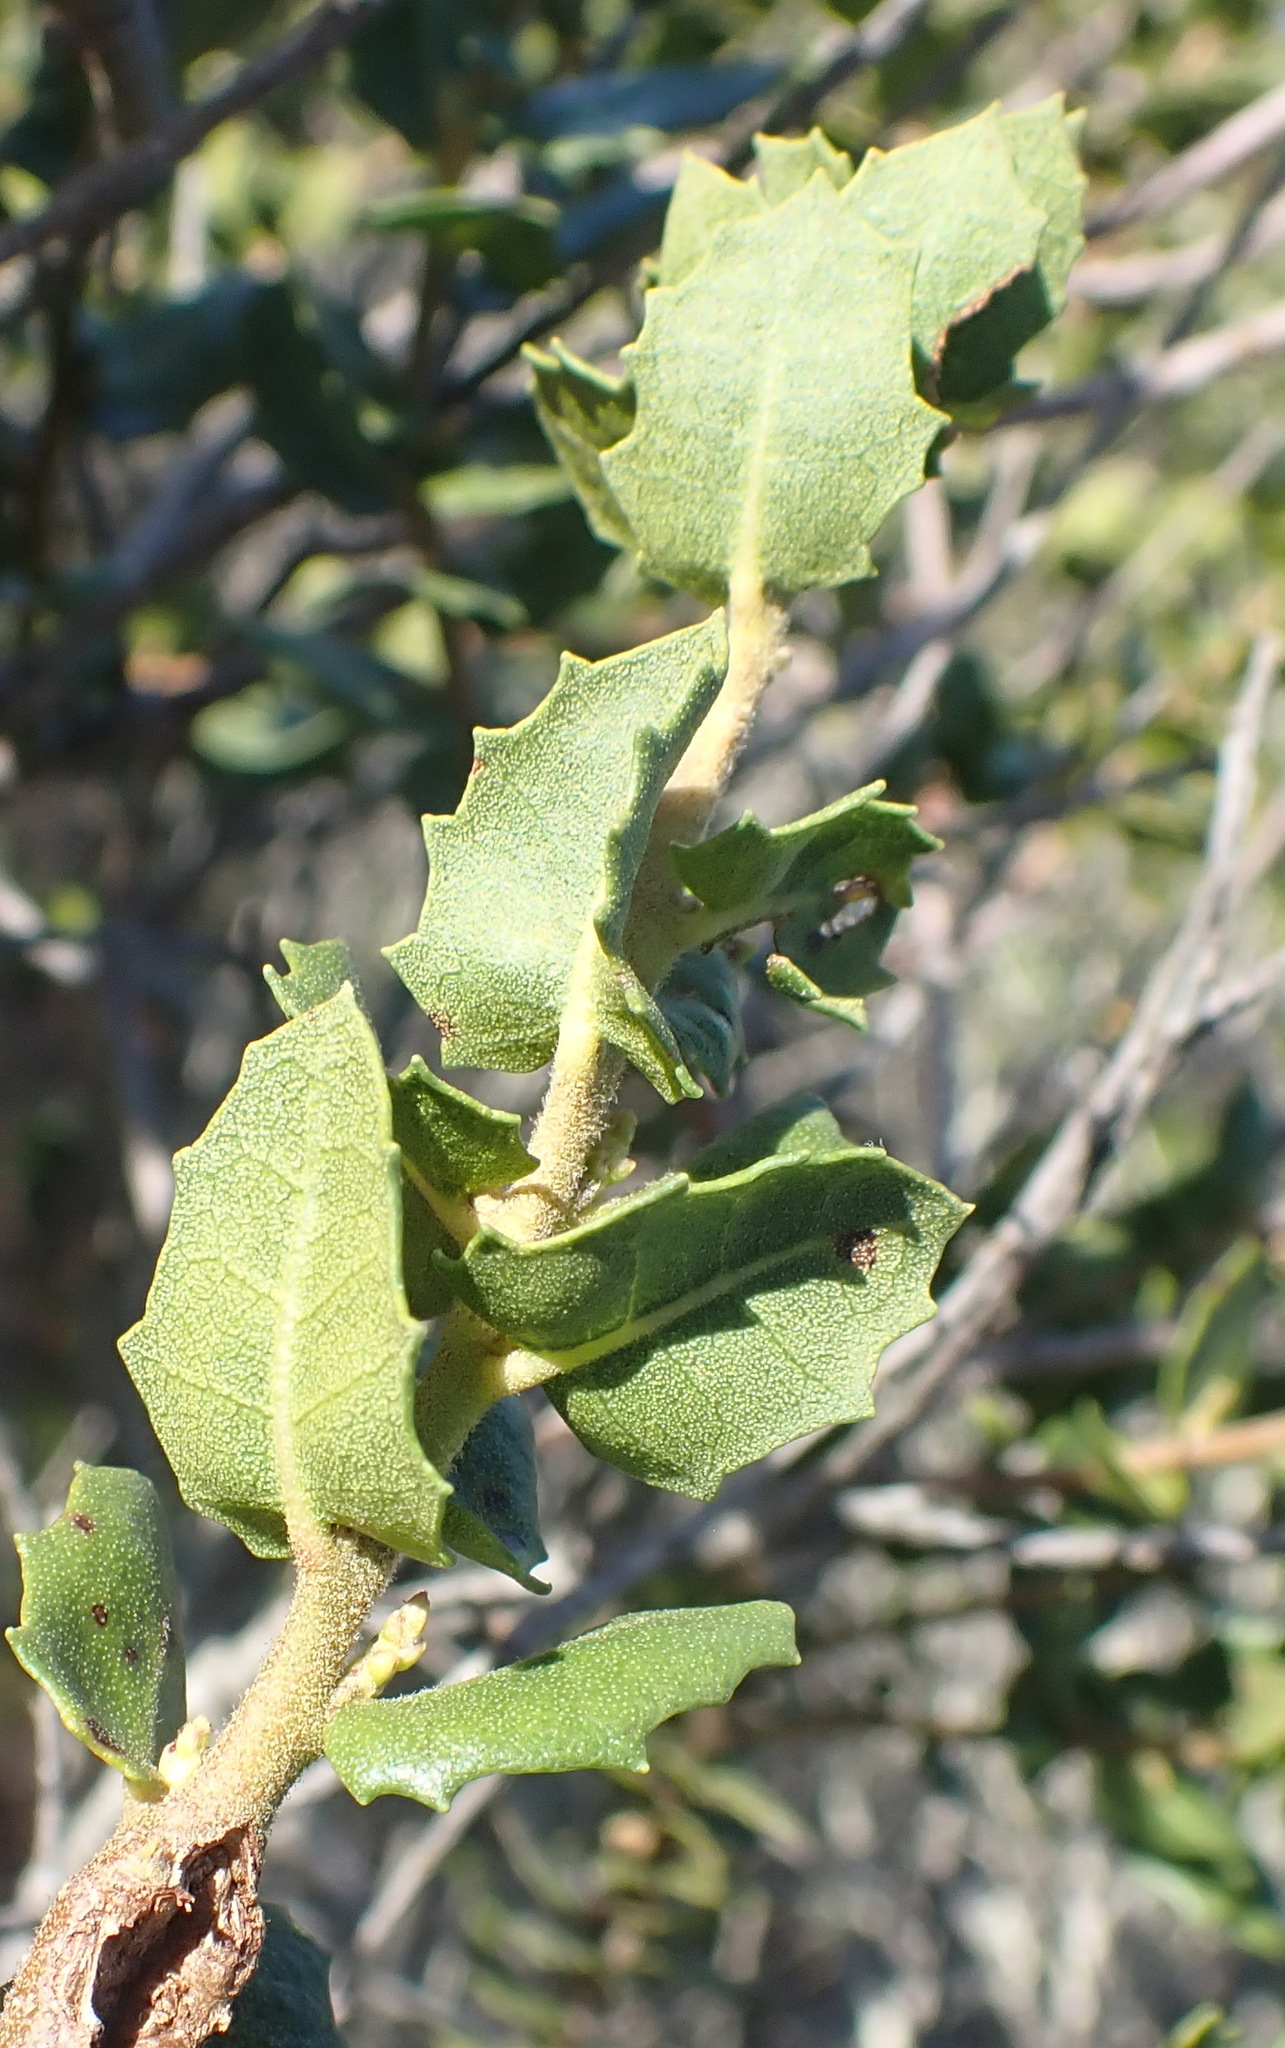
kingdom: Plantae
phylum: Tracheophyta
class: Magnoliopsida
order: Fagales
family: Myricaceae
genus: Morella
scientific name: Morella cordifolia
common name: Waxberry
